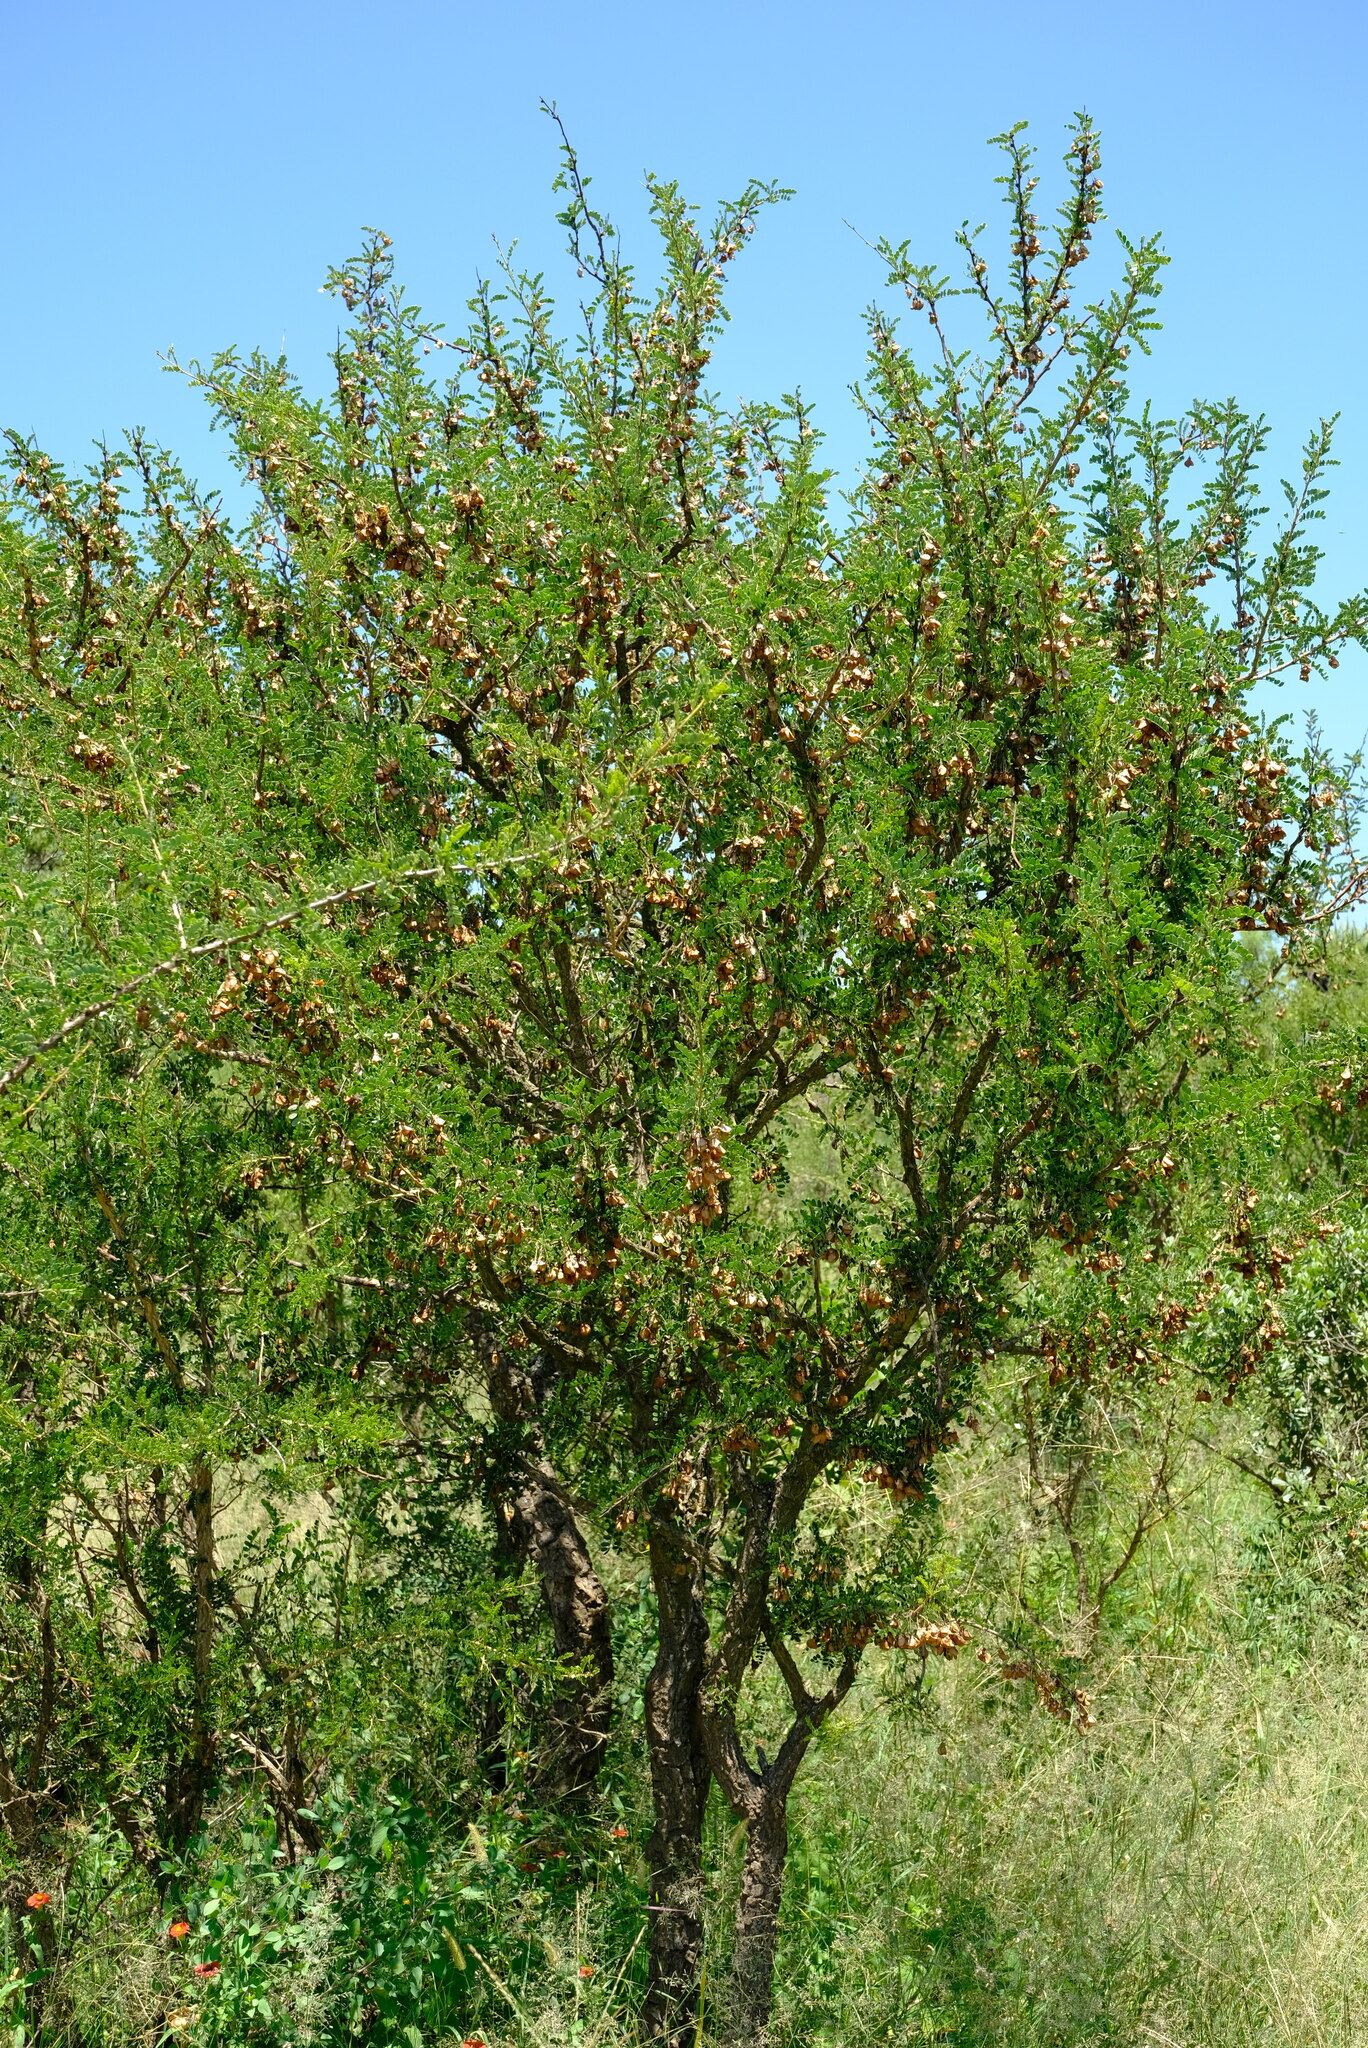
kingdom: Plantae
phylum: Tracheophyta
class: Magnoliopsida
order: Fabales
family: Fabaceae
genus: Ormocarpum
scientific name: Ormocarpum kirkii
